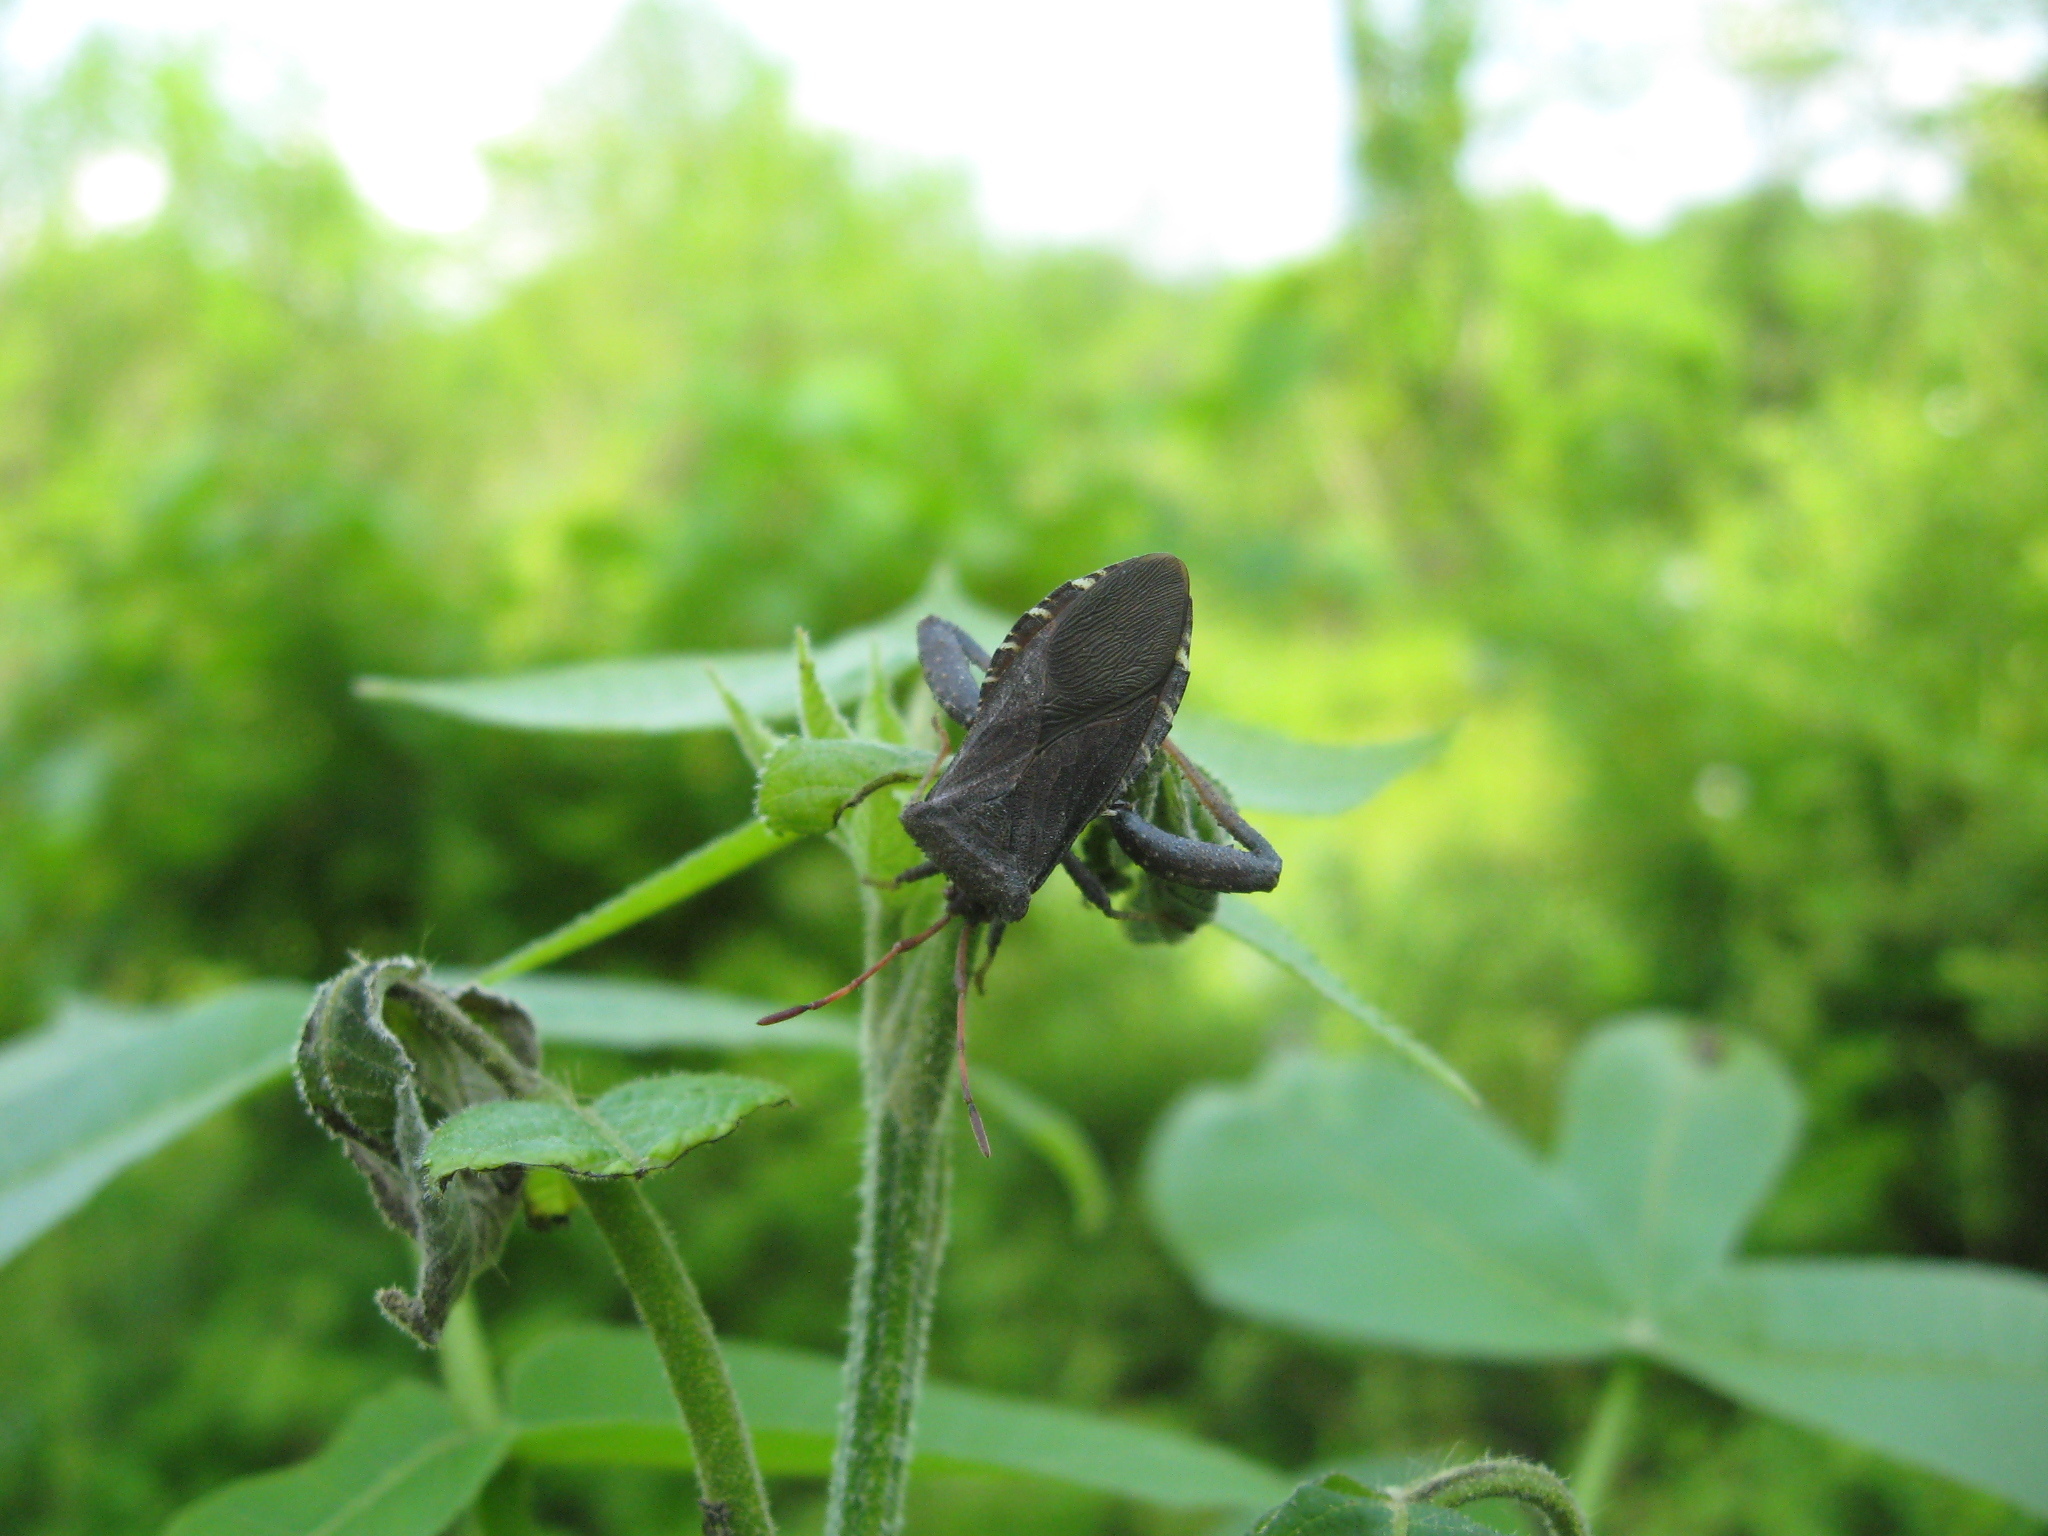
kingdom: Animalia
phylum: Arthropoda
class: Insecta
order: Hemiptera
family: Coreidae
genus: Euthochtha
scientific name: Euthochtha galeator
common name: Helmeted squash bug
